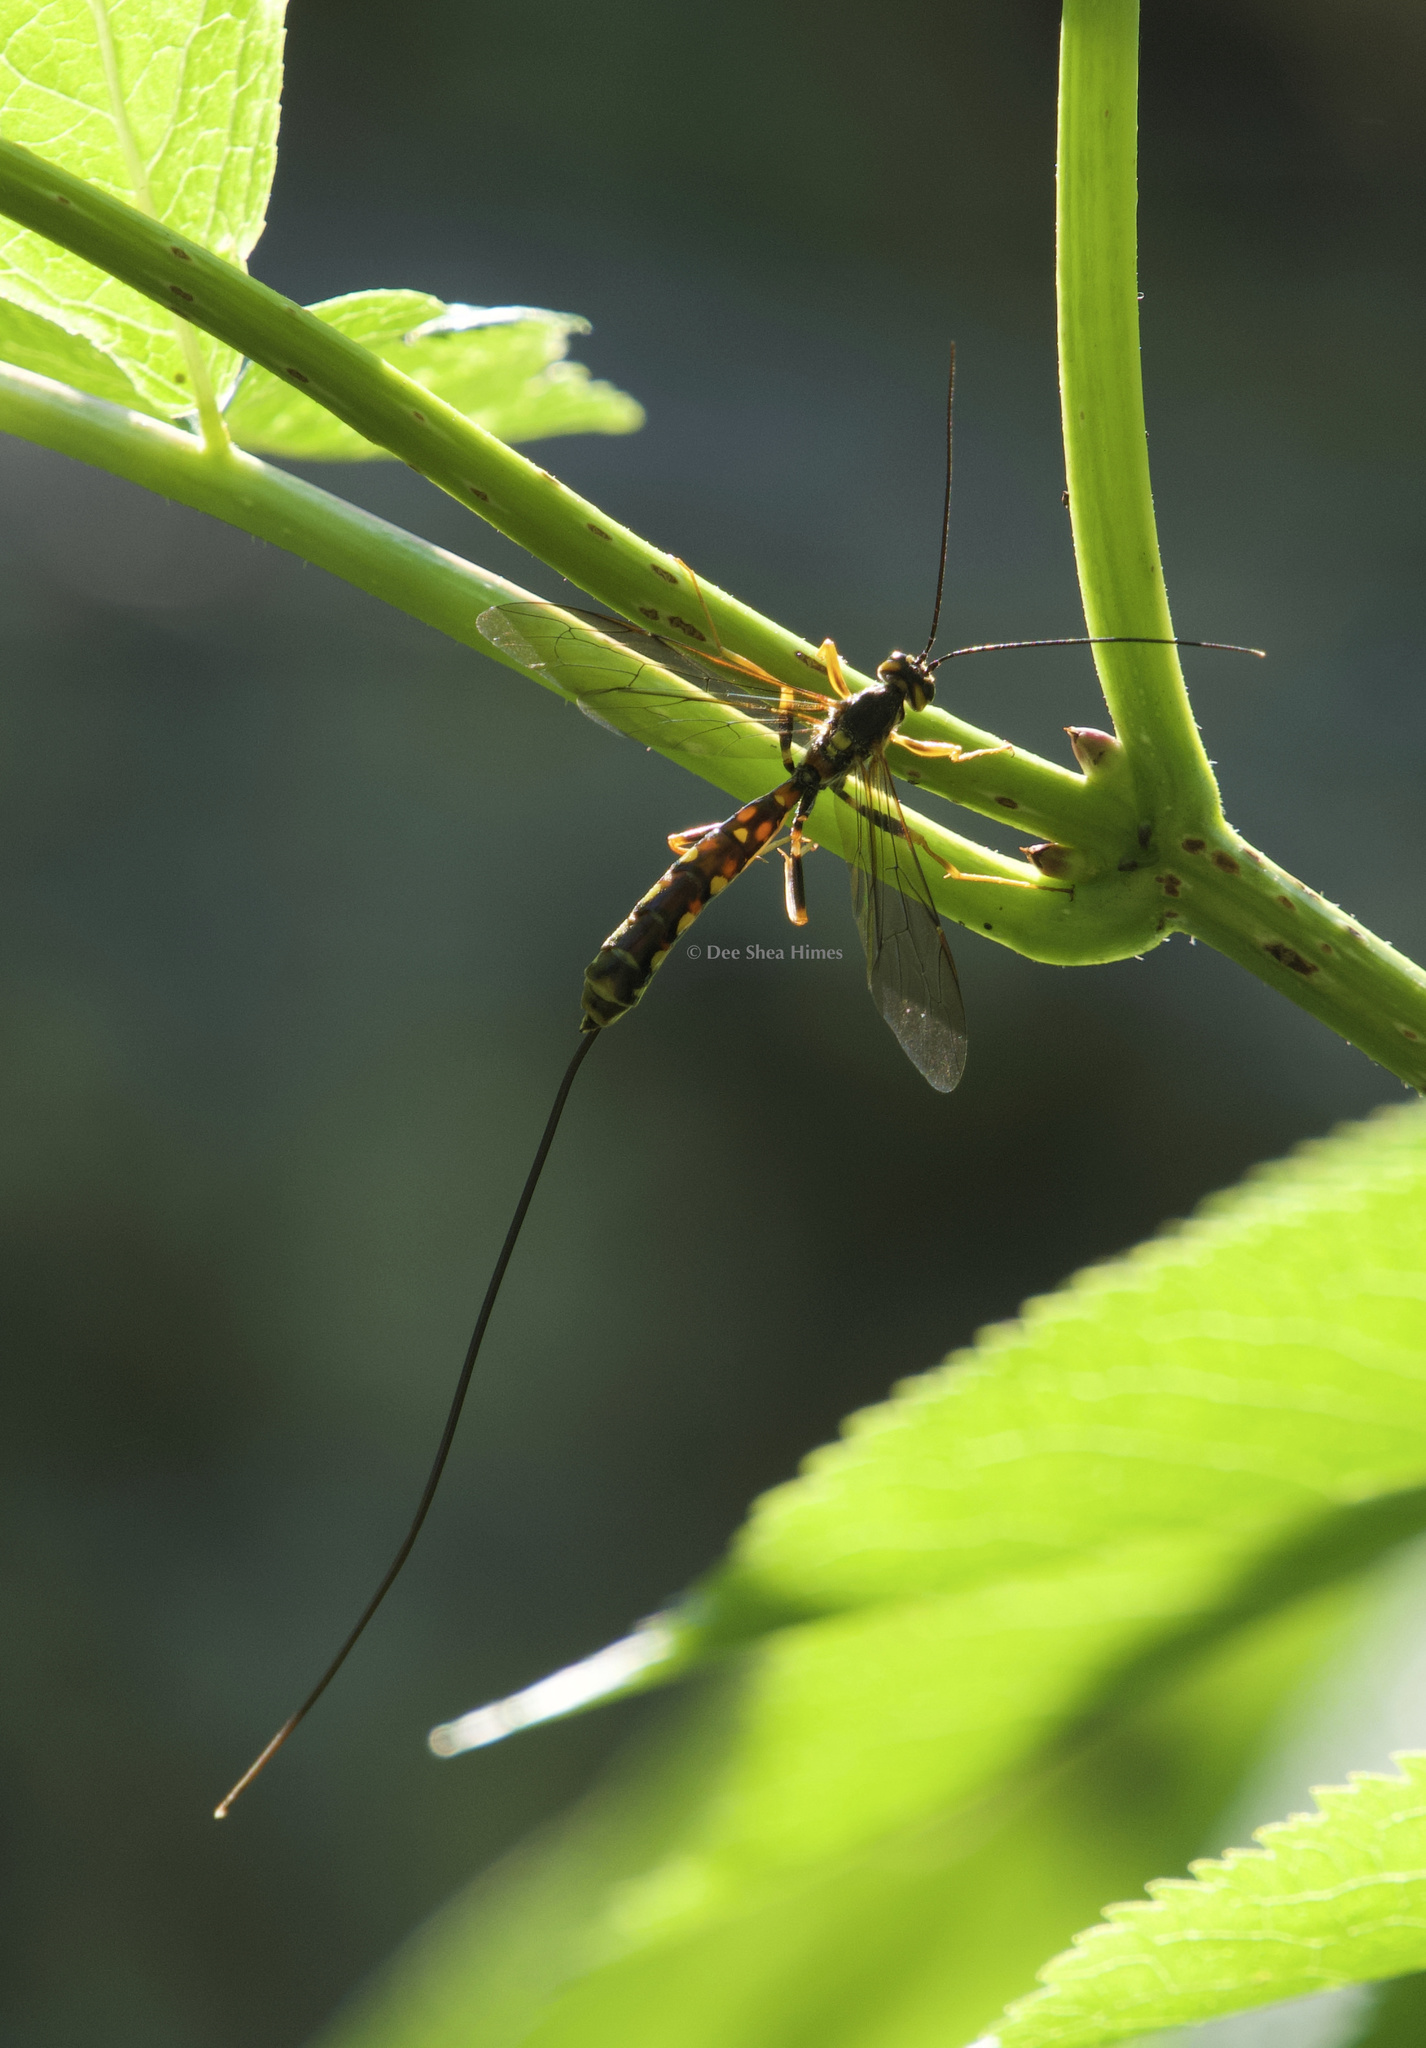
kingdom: Animalia
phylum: Arthropoda
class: Insecta
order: Hymenoptera
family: Ichneumonidae
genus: Megarhyssa
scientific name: Megarhyssa nortoni
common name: Norton's giant ichneumonid wasp
